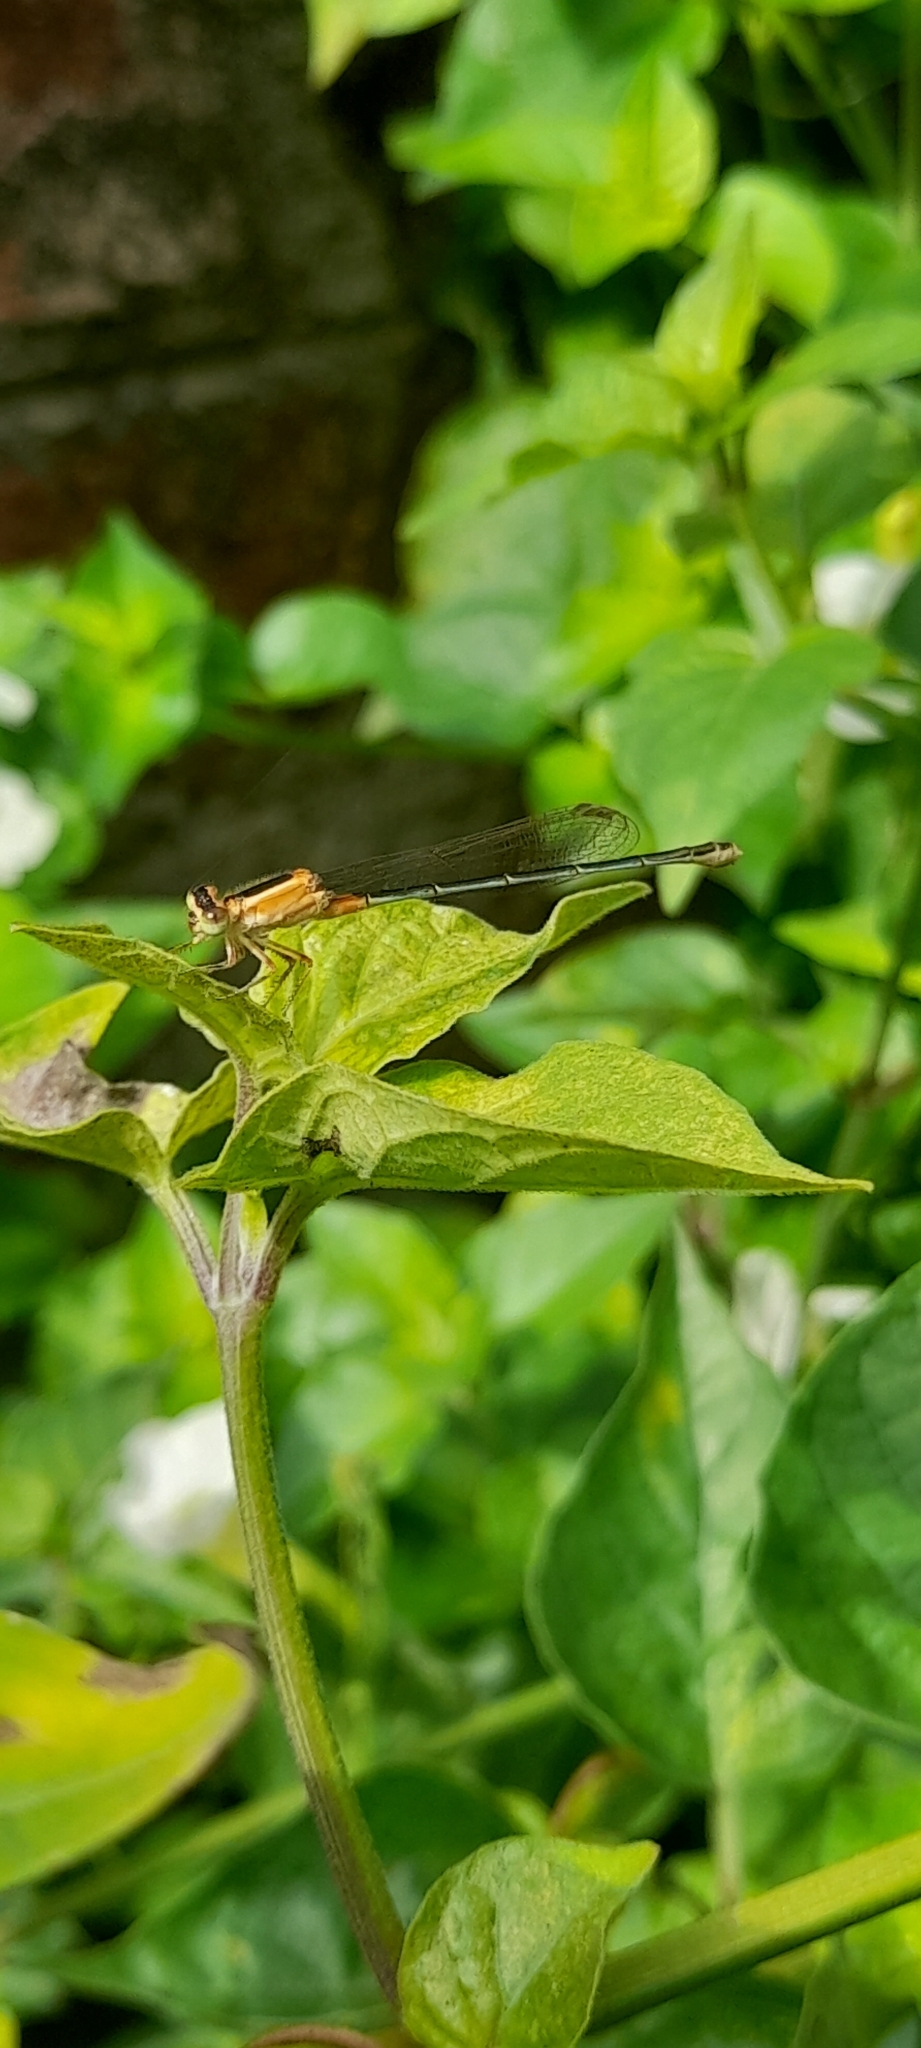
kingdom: Animalia
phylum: Arthropoda
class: Insecta
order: Odonata
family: Coenagrionidae
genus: Ischnura
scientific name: Ischnura senegalensis
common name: Tropical bluetail
